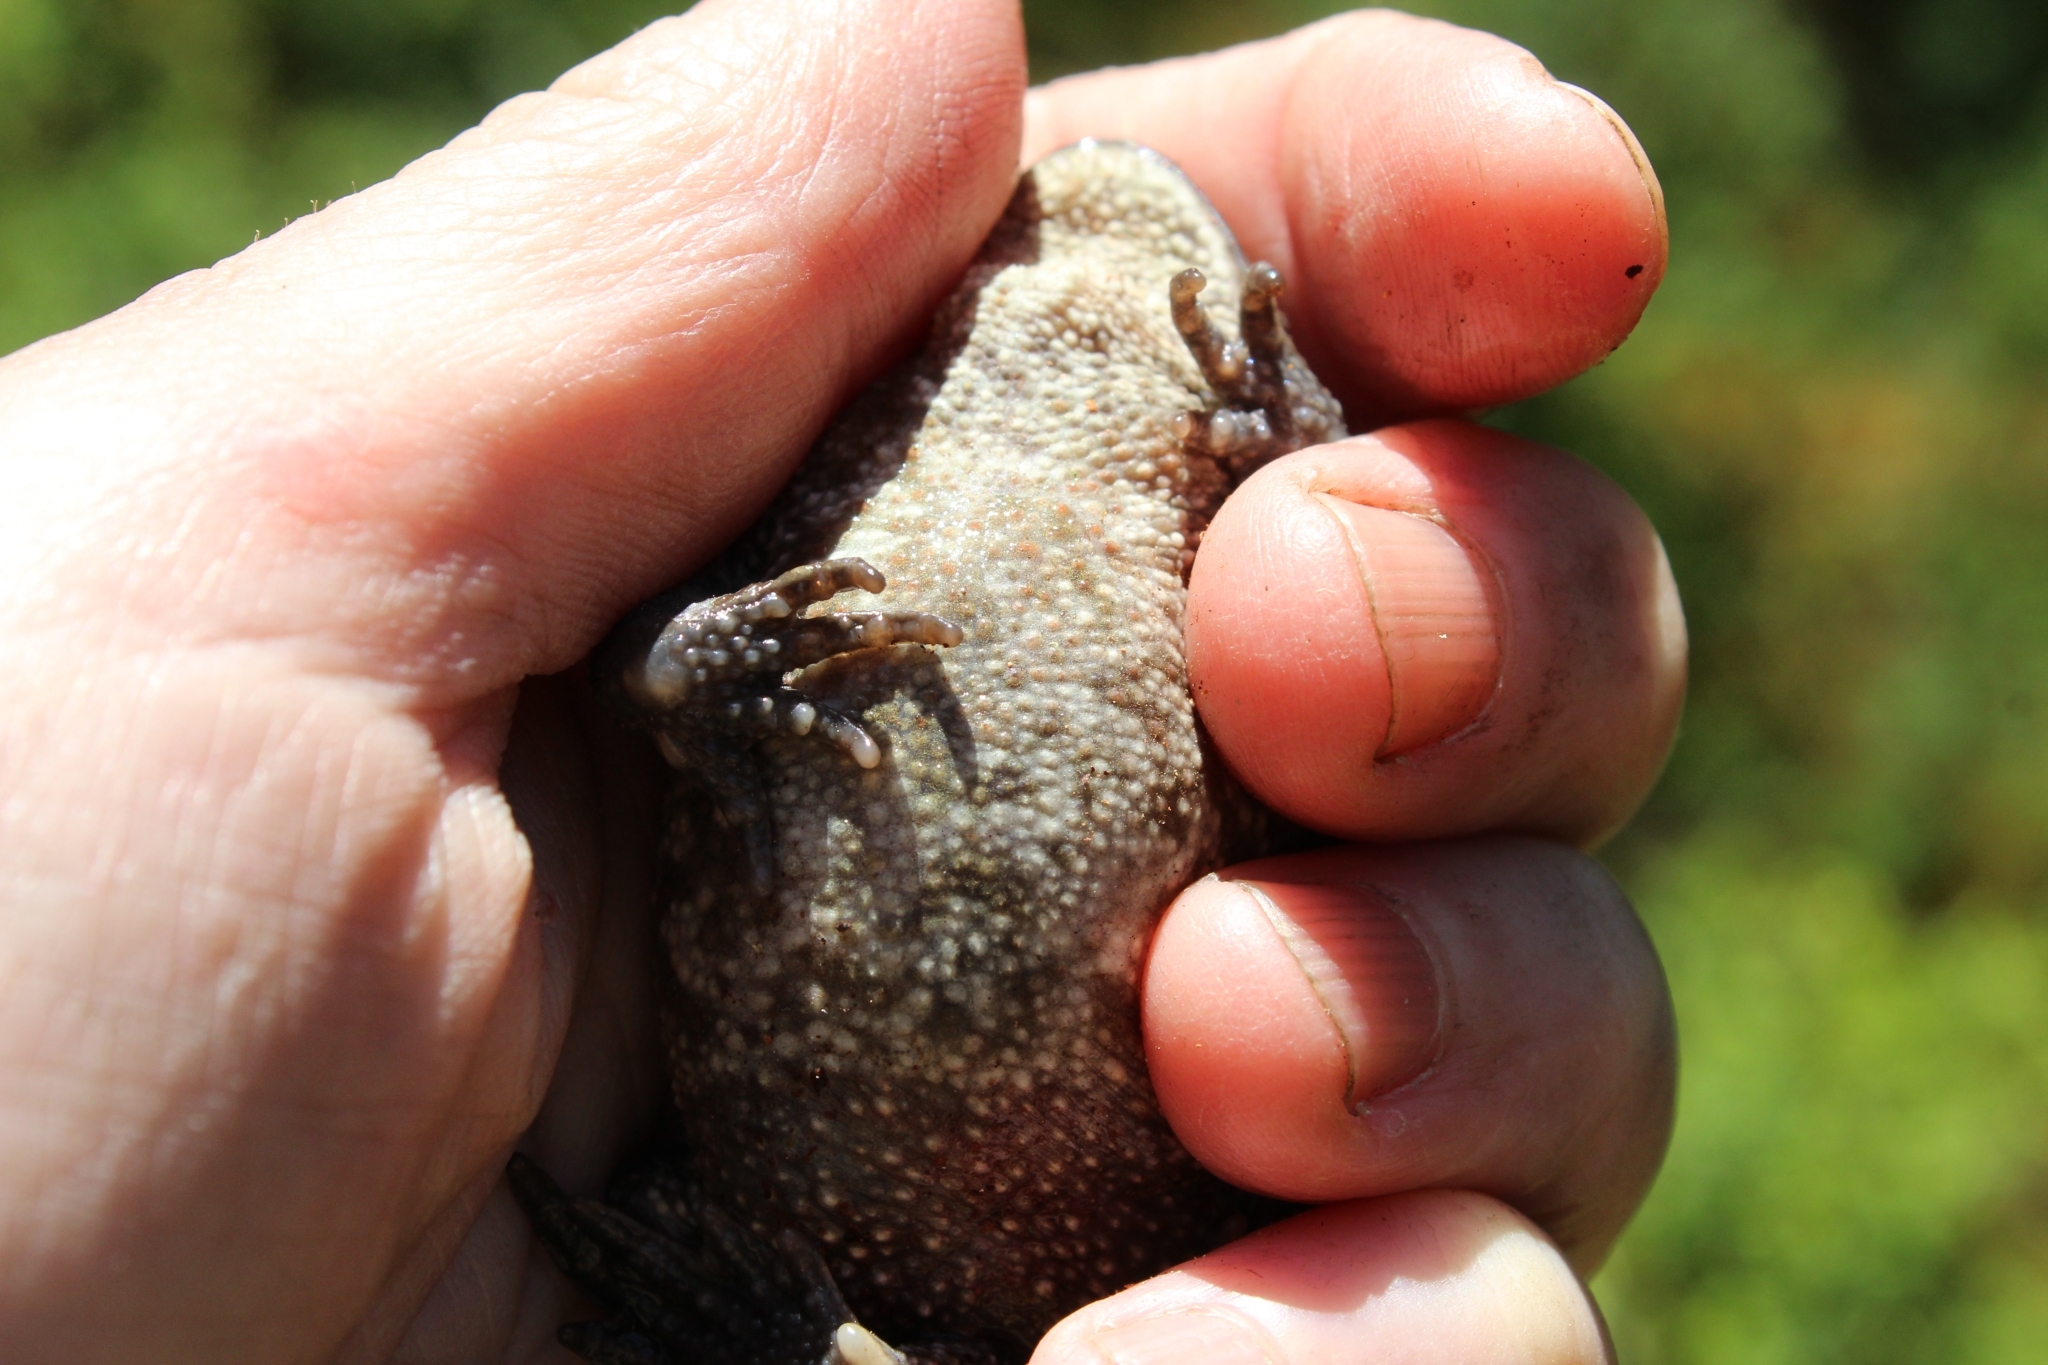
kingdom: Animalia
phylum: Chordata
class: Amphibia
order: Anura
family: Bufonidae
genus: Bufo
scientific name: Bufo bufo
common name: Common toad
